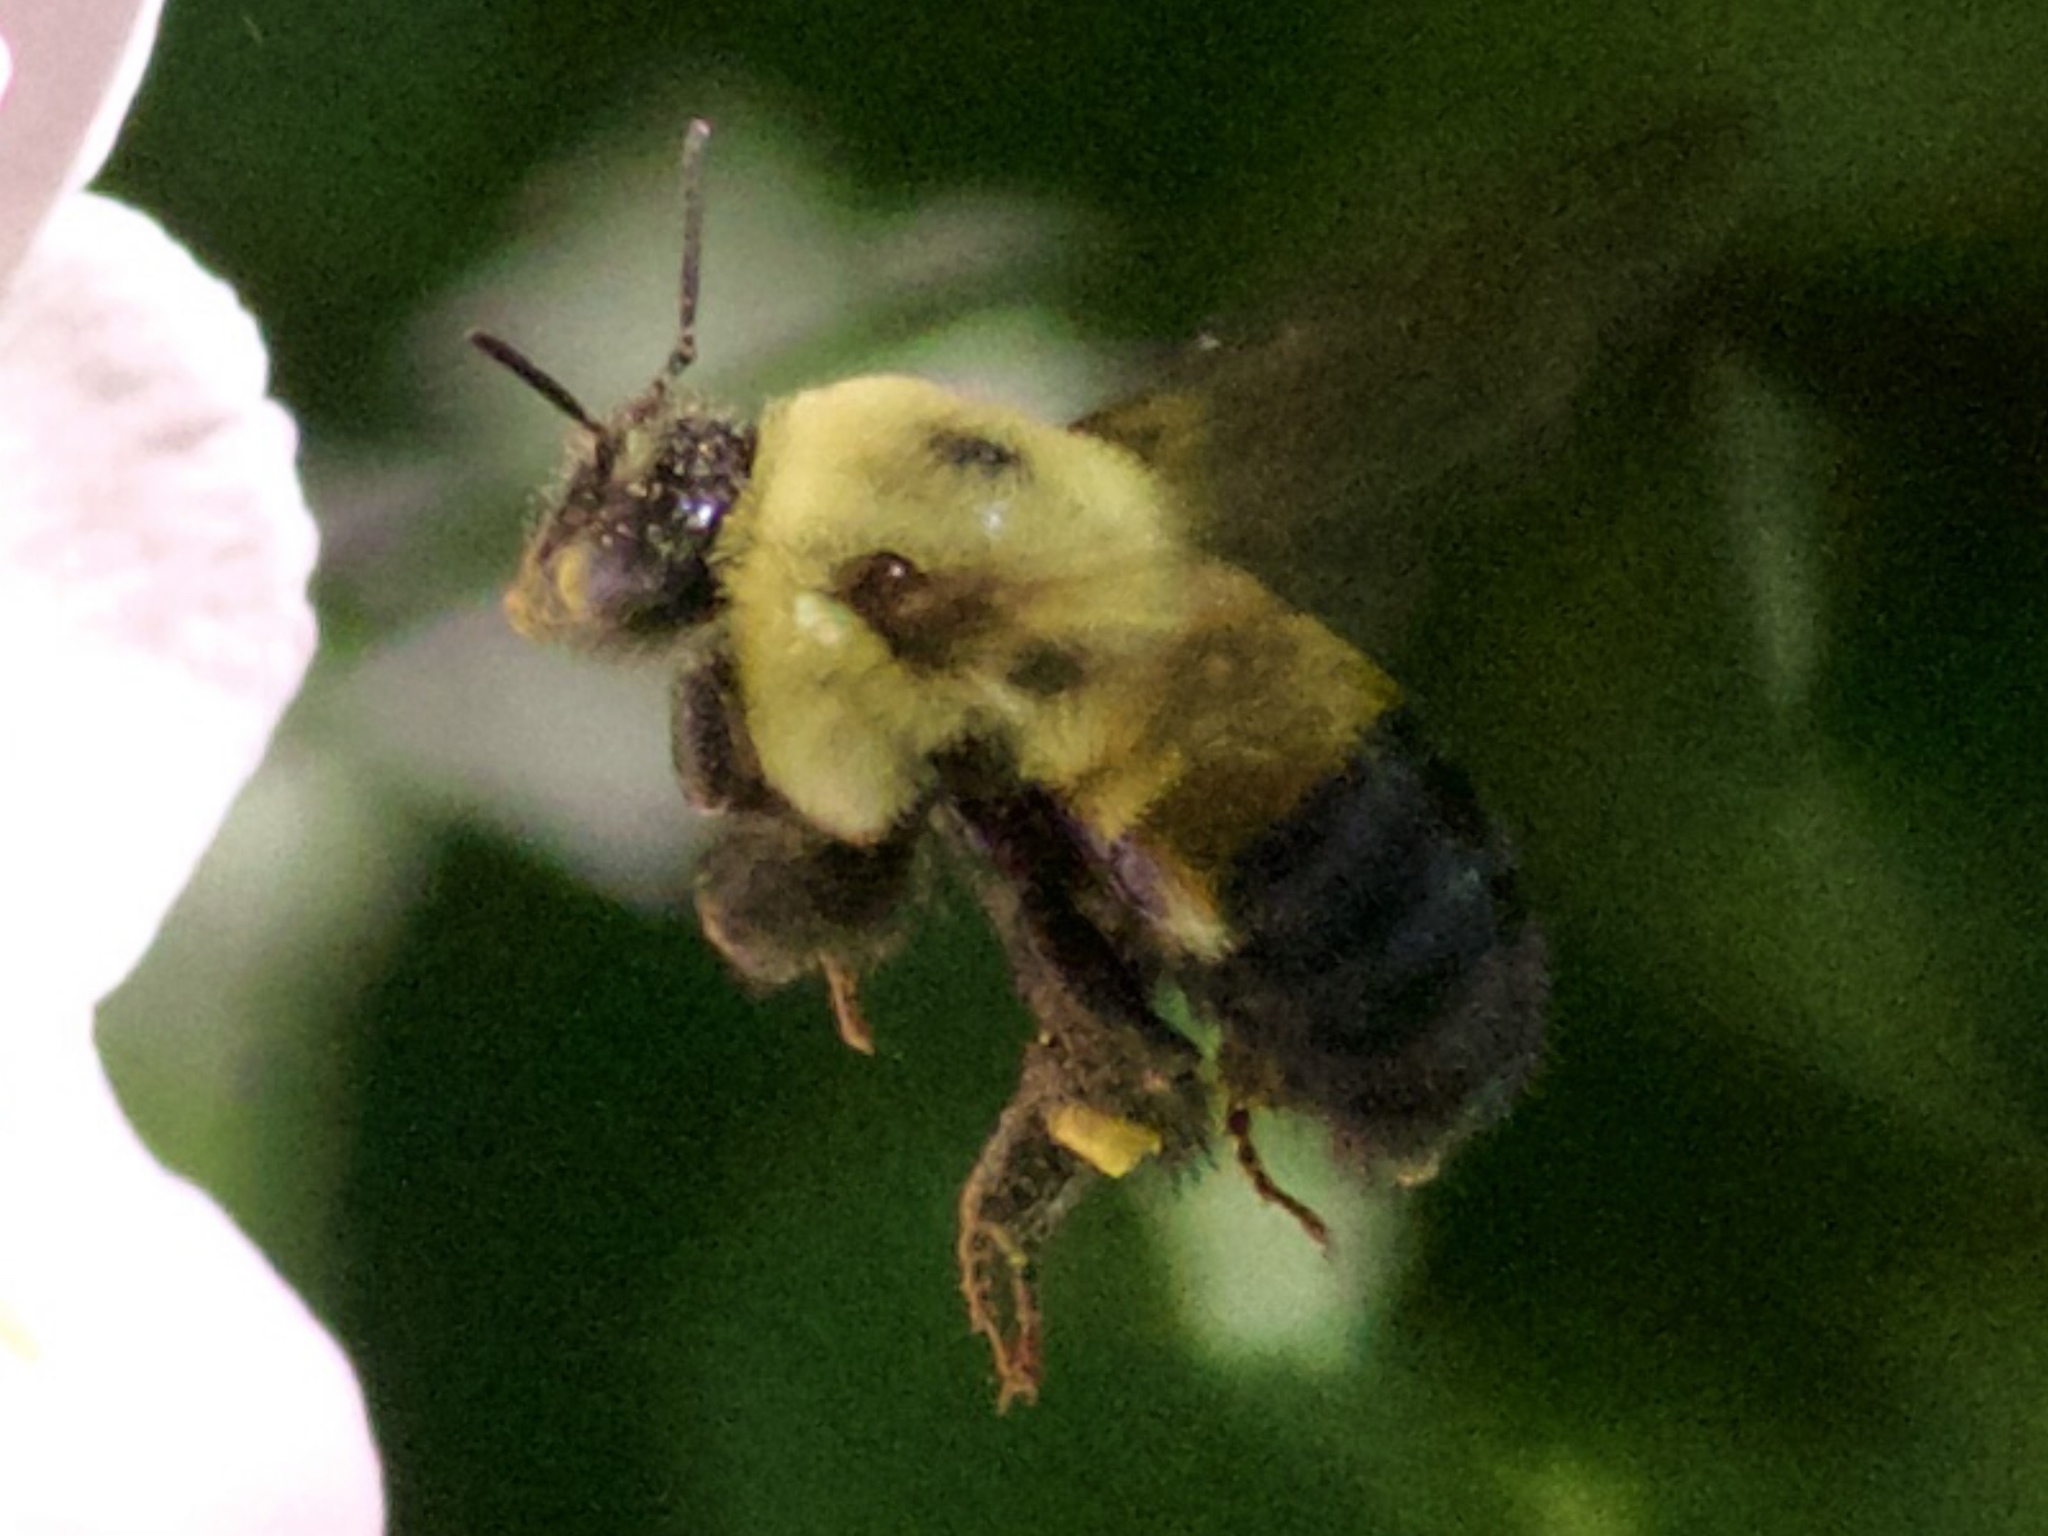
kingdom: Animalia
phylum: Arthropoda
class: Insecta
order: Hymenoptera
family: Apidae
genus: Bombus
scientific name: Bombus griseocollis
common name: Brown-belted bumble bee
